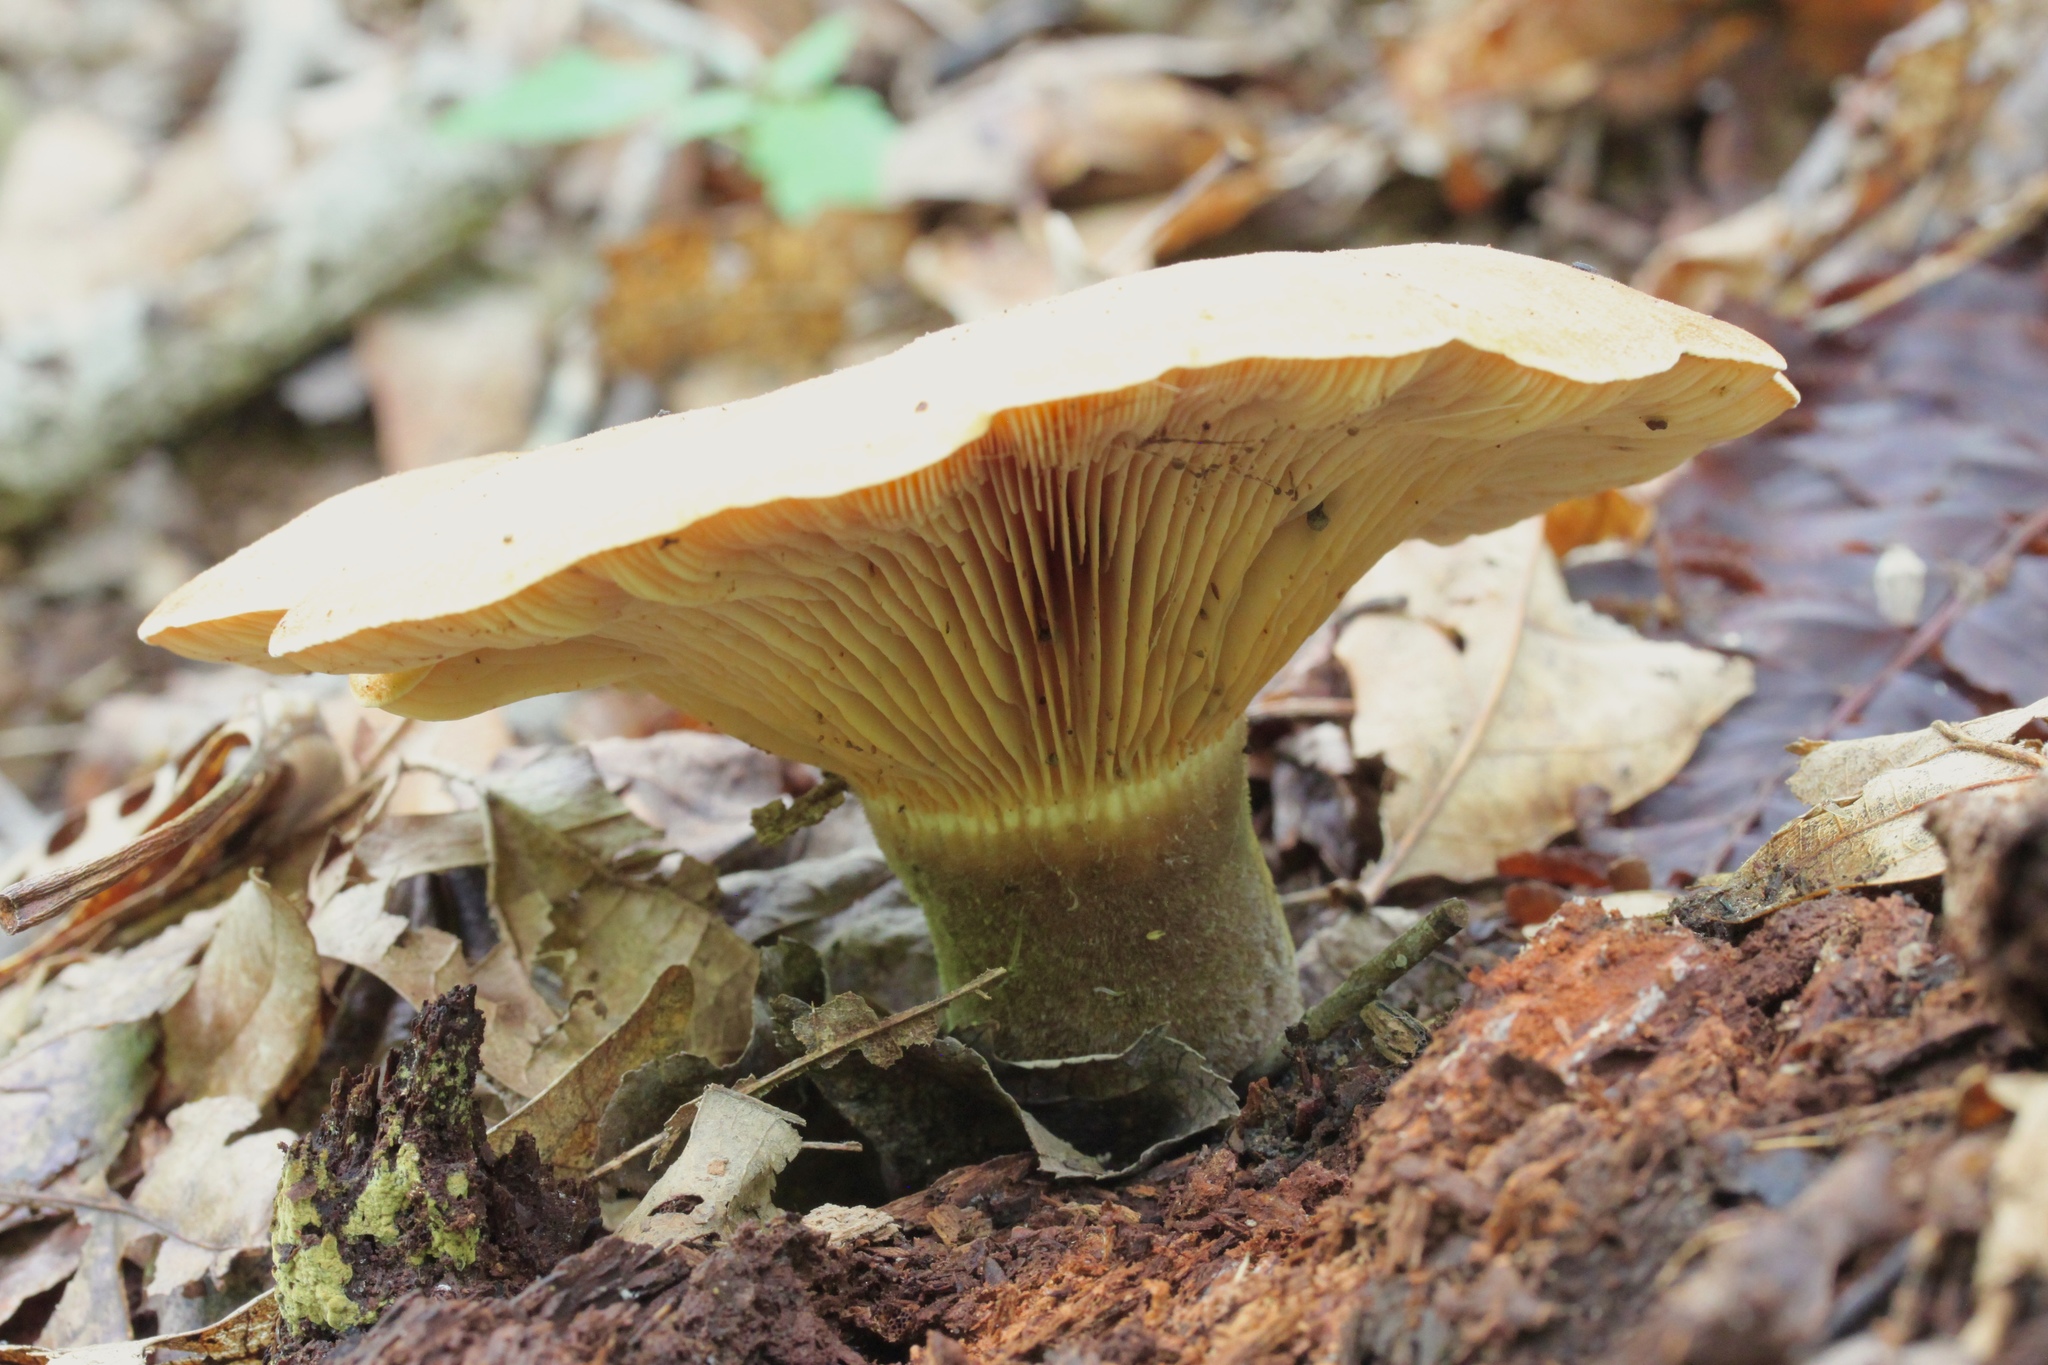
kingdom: Fungi
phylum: Basidiomycota
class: Agaricomycetes
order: Boletales
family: Tapinellaceae
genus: Tapinella
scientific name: Tapinella atrotomentosa
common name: Velvet rollrim
